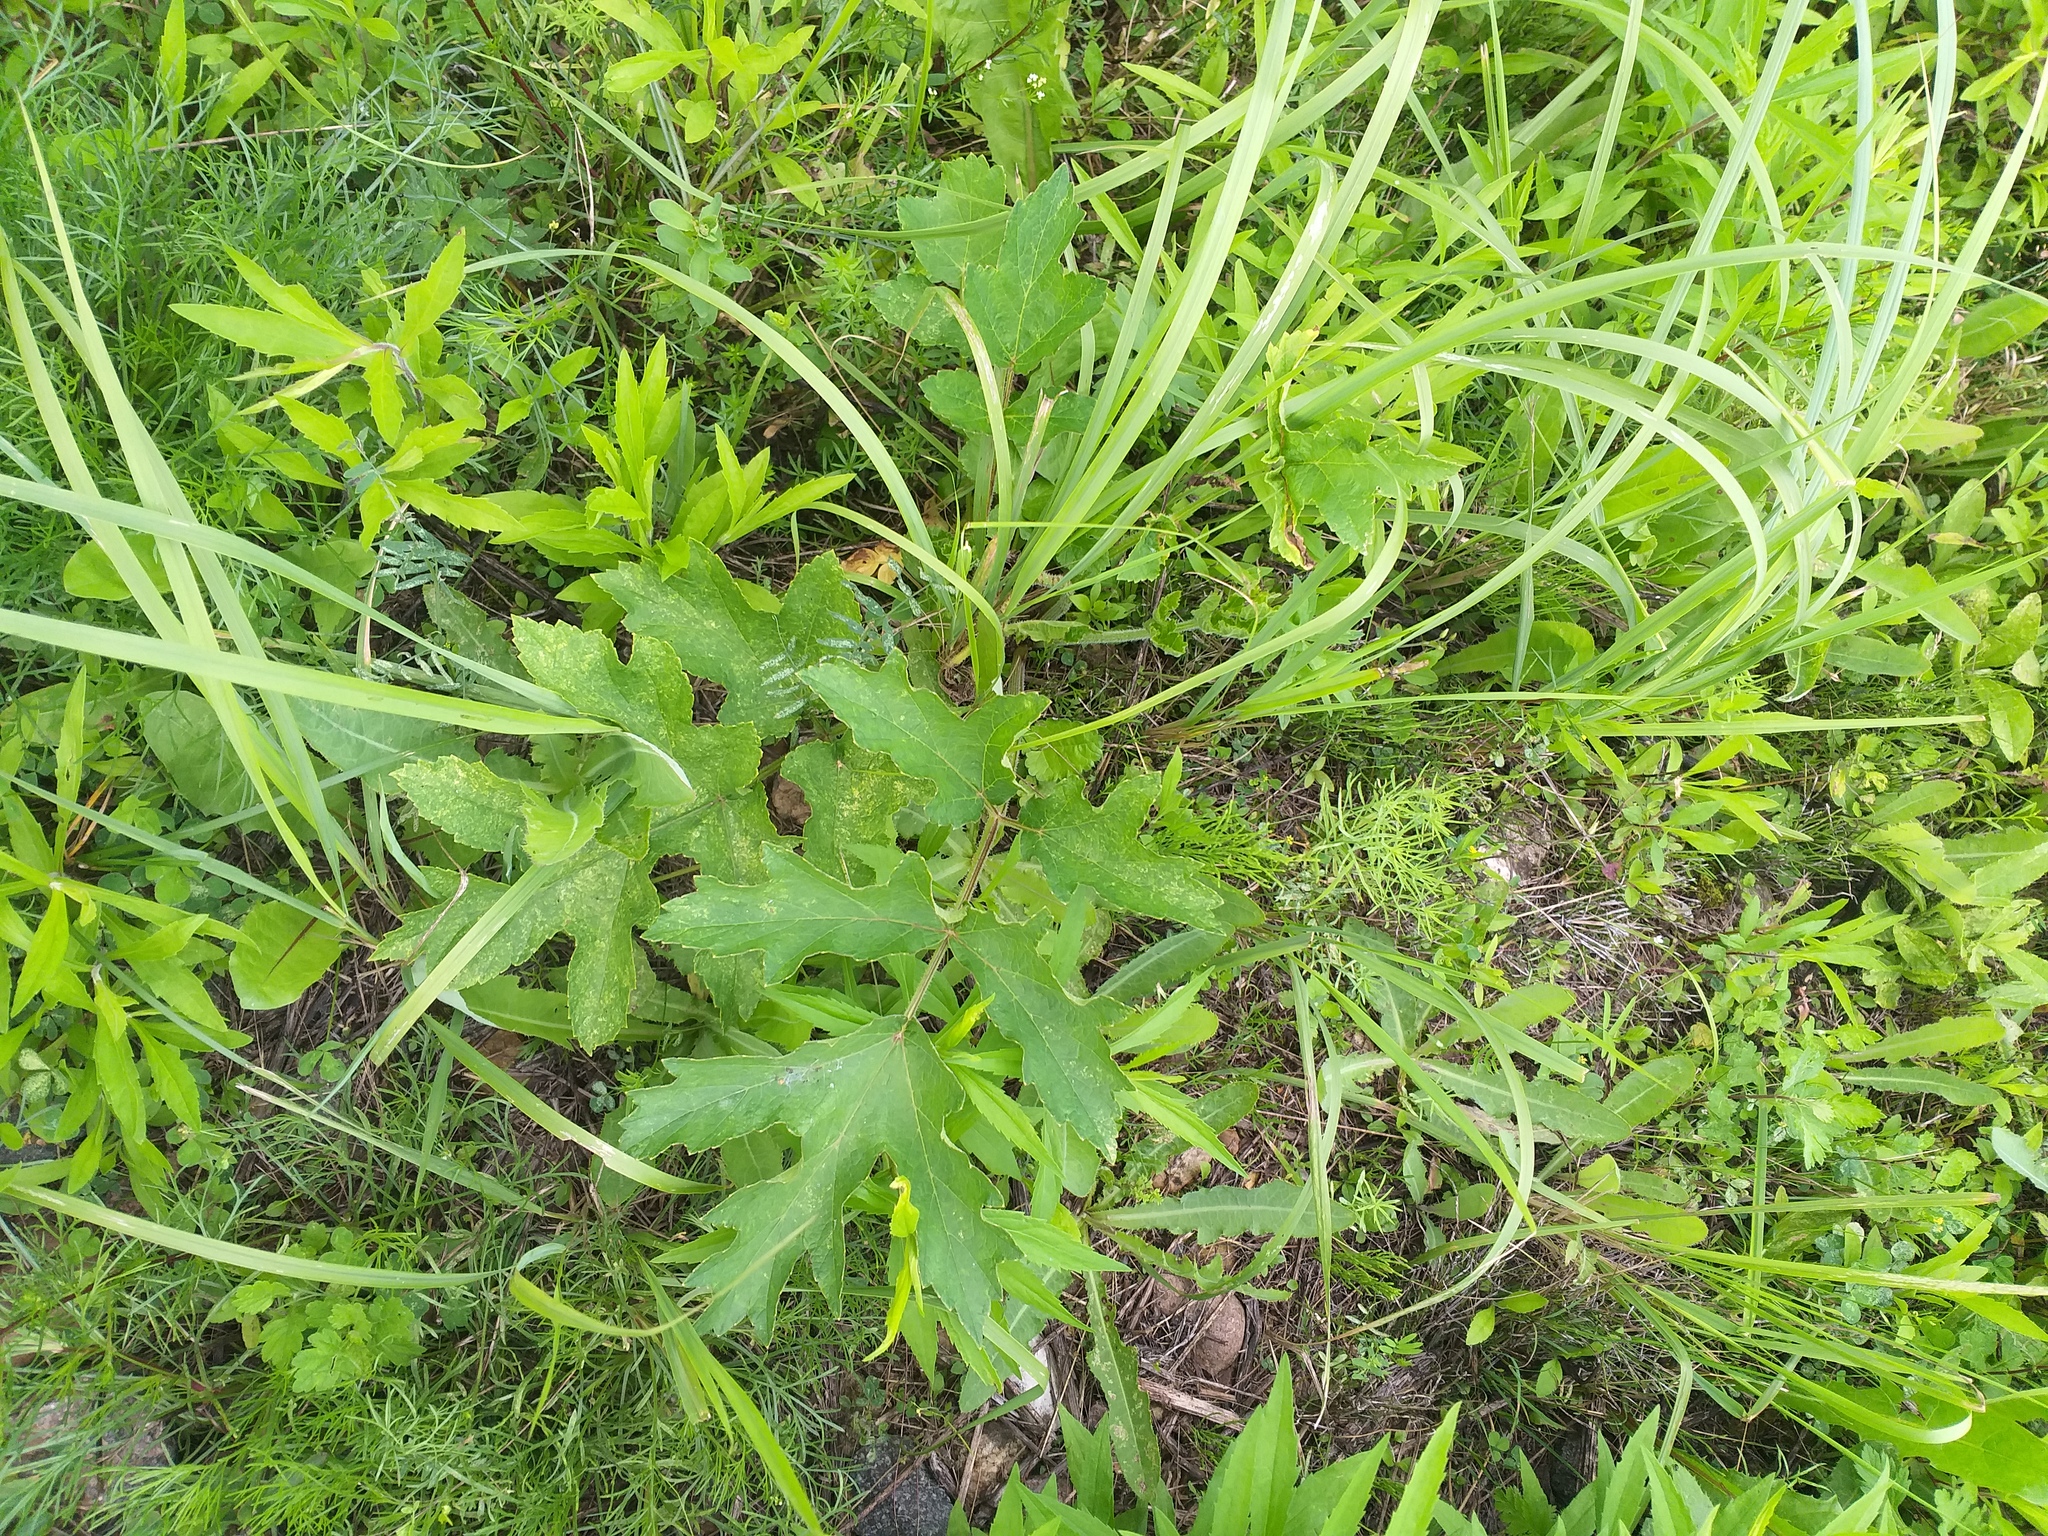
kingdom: Plantae
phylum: Tracheophyta
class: Magnoliopsida
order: Apiales
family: Apiaceae
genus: Heracleum
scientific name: Heracleum sphondylium
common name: Hogweed
